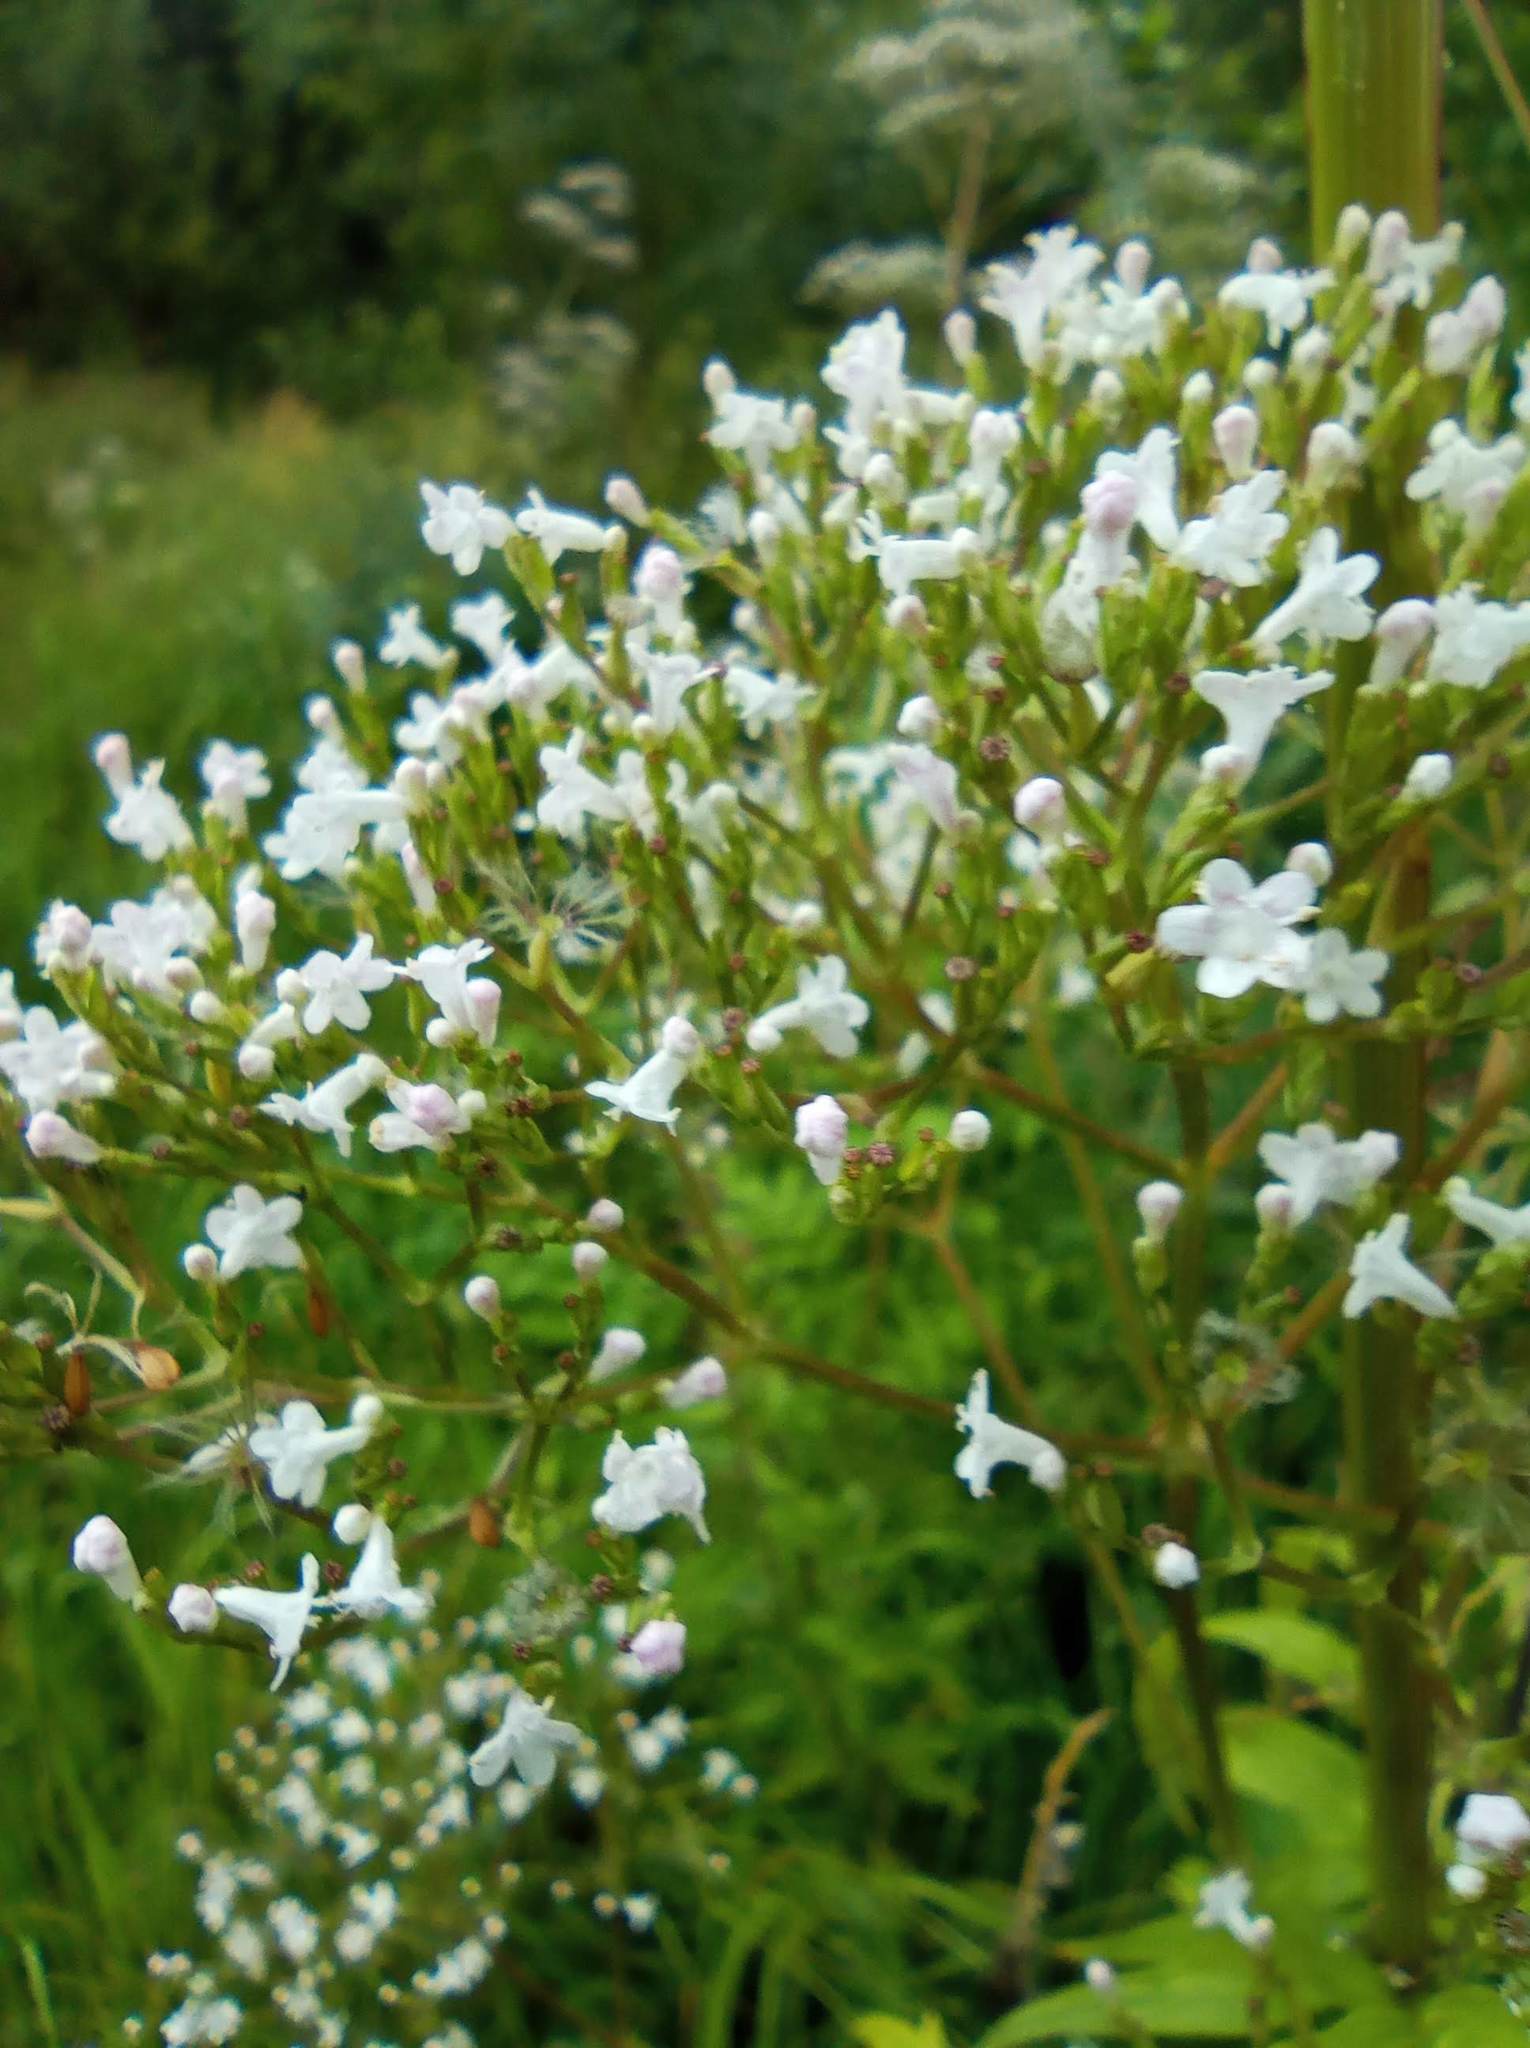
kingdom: Plantae
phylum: Tracheophyta
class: Magnoliopsida
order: Dipsacales
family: Caprifoliaceae
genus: Valeriana
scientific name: Valeriana wolgensis
